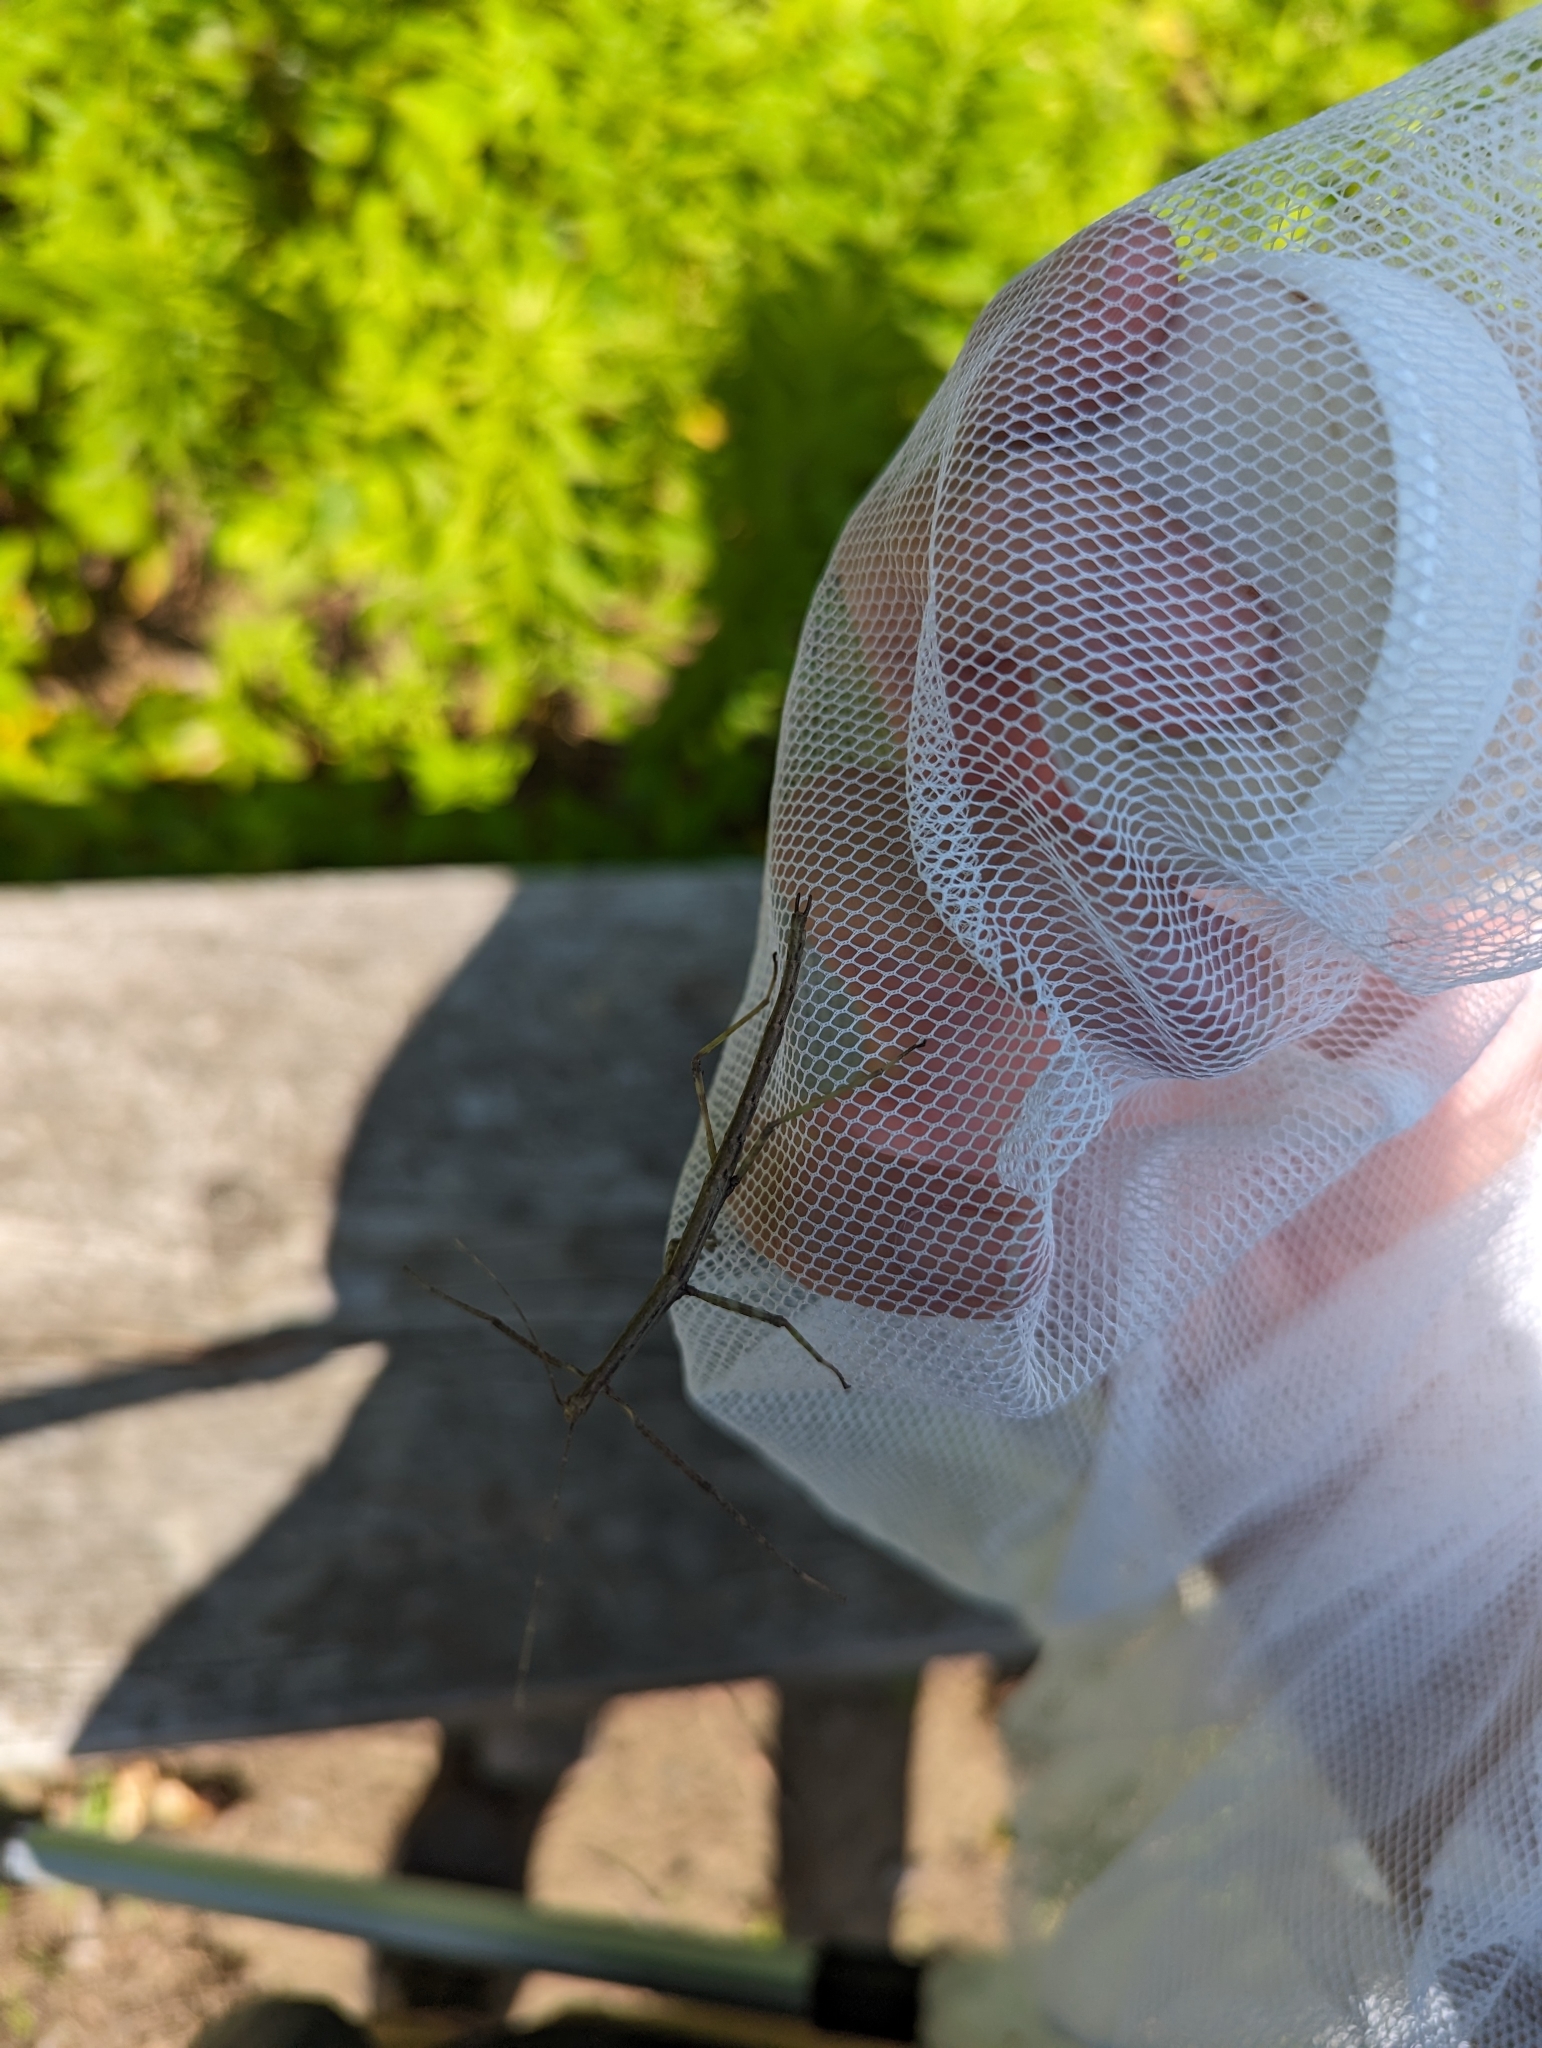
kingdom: Animalia
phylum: Arthropoda
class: Insecta
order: Phasmida
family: Diapheromeridae
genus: Diapheromera
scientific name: Diapheromera femorata
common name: Common american walkingstick
